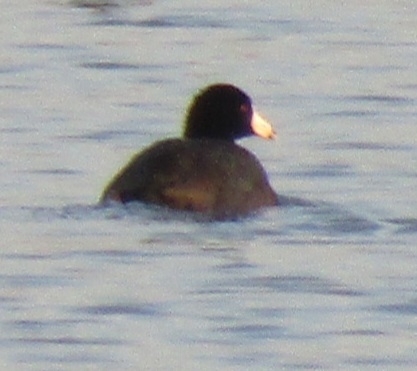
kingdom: Animalia
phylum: Chordata
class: Aves
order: Gruiformes
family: Rallidae
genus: Fulica
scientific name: Fulica americana
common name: American coot
